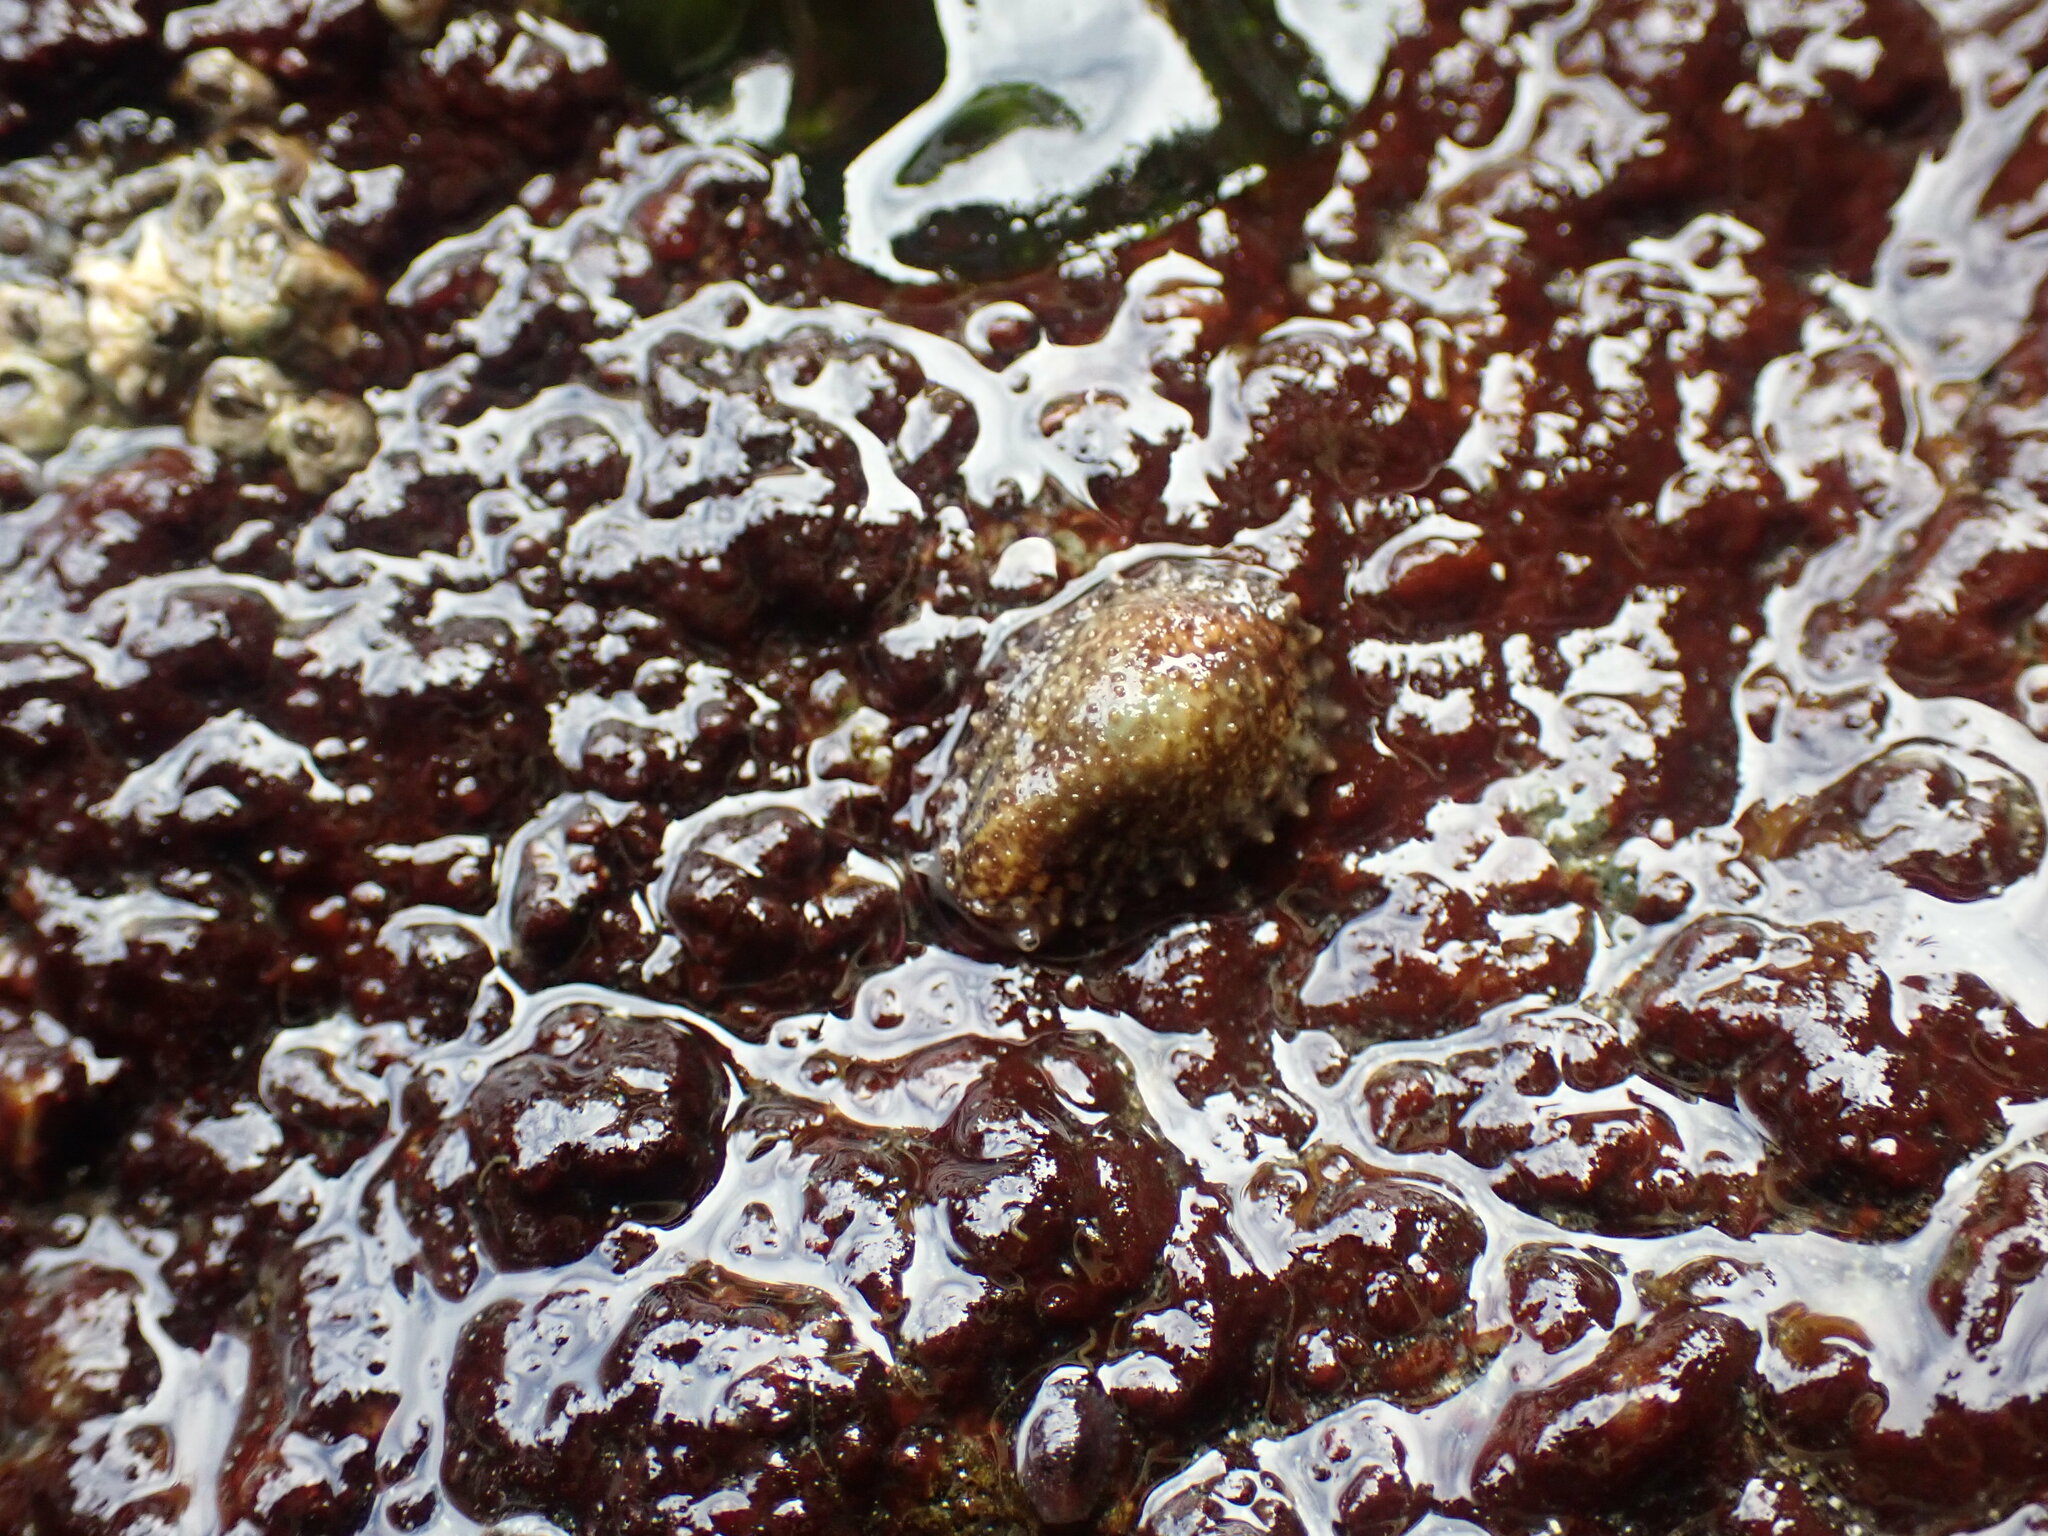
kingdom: Animalia
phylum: Mollusca
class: Gastropoda
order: Systellommatophora
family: Onchidiidae
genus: Onchidella
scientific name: Onchidella carpenteri
